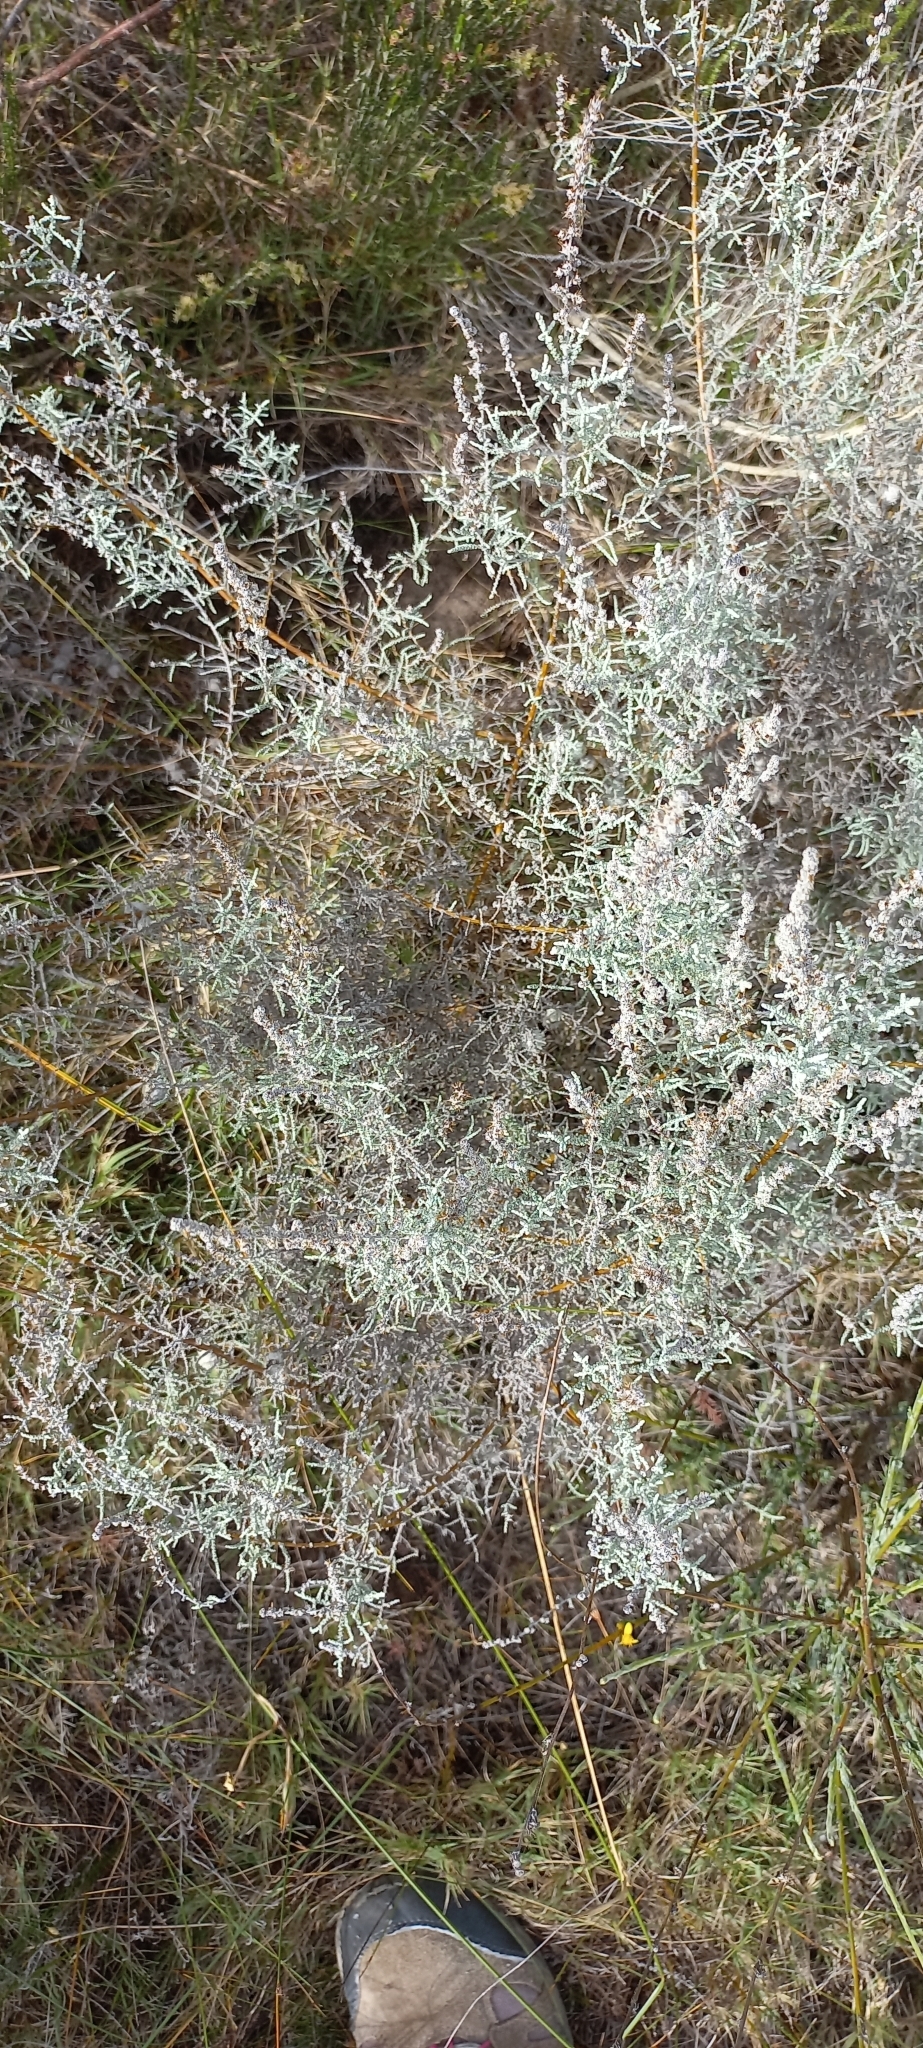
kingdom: Plantae
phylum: Tracheophyta
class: Magnoliopsida
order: Asterales
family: Asteraceae
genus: Seriphium
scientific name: Seriphium plumosum
